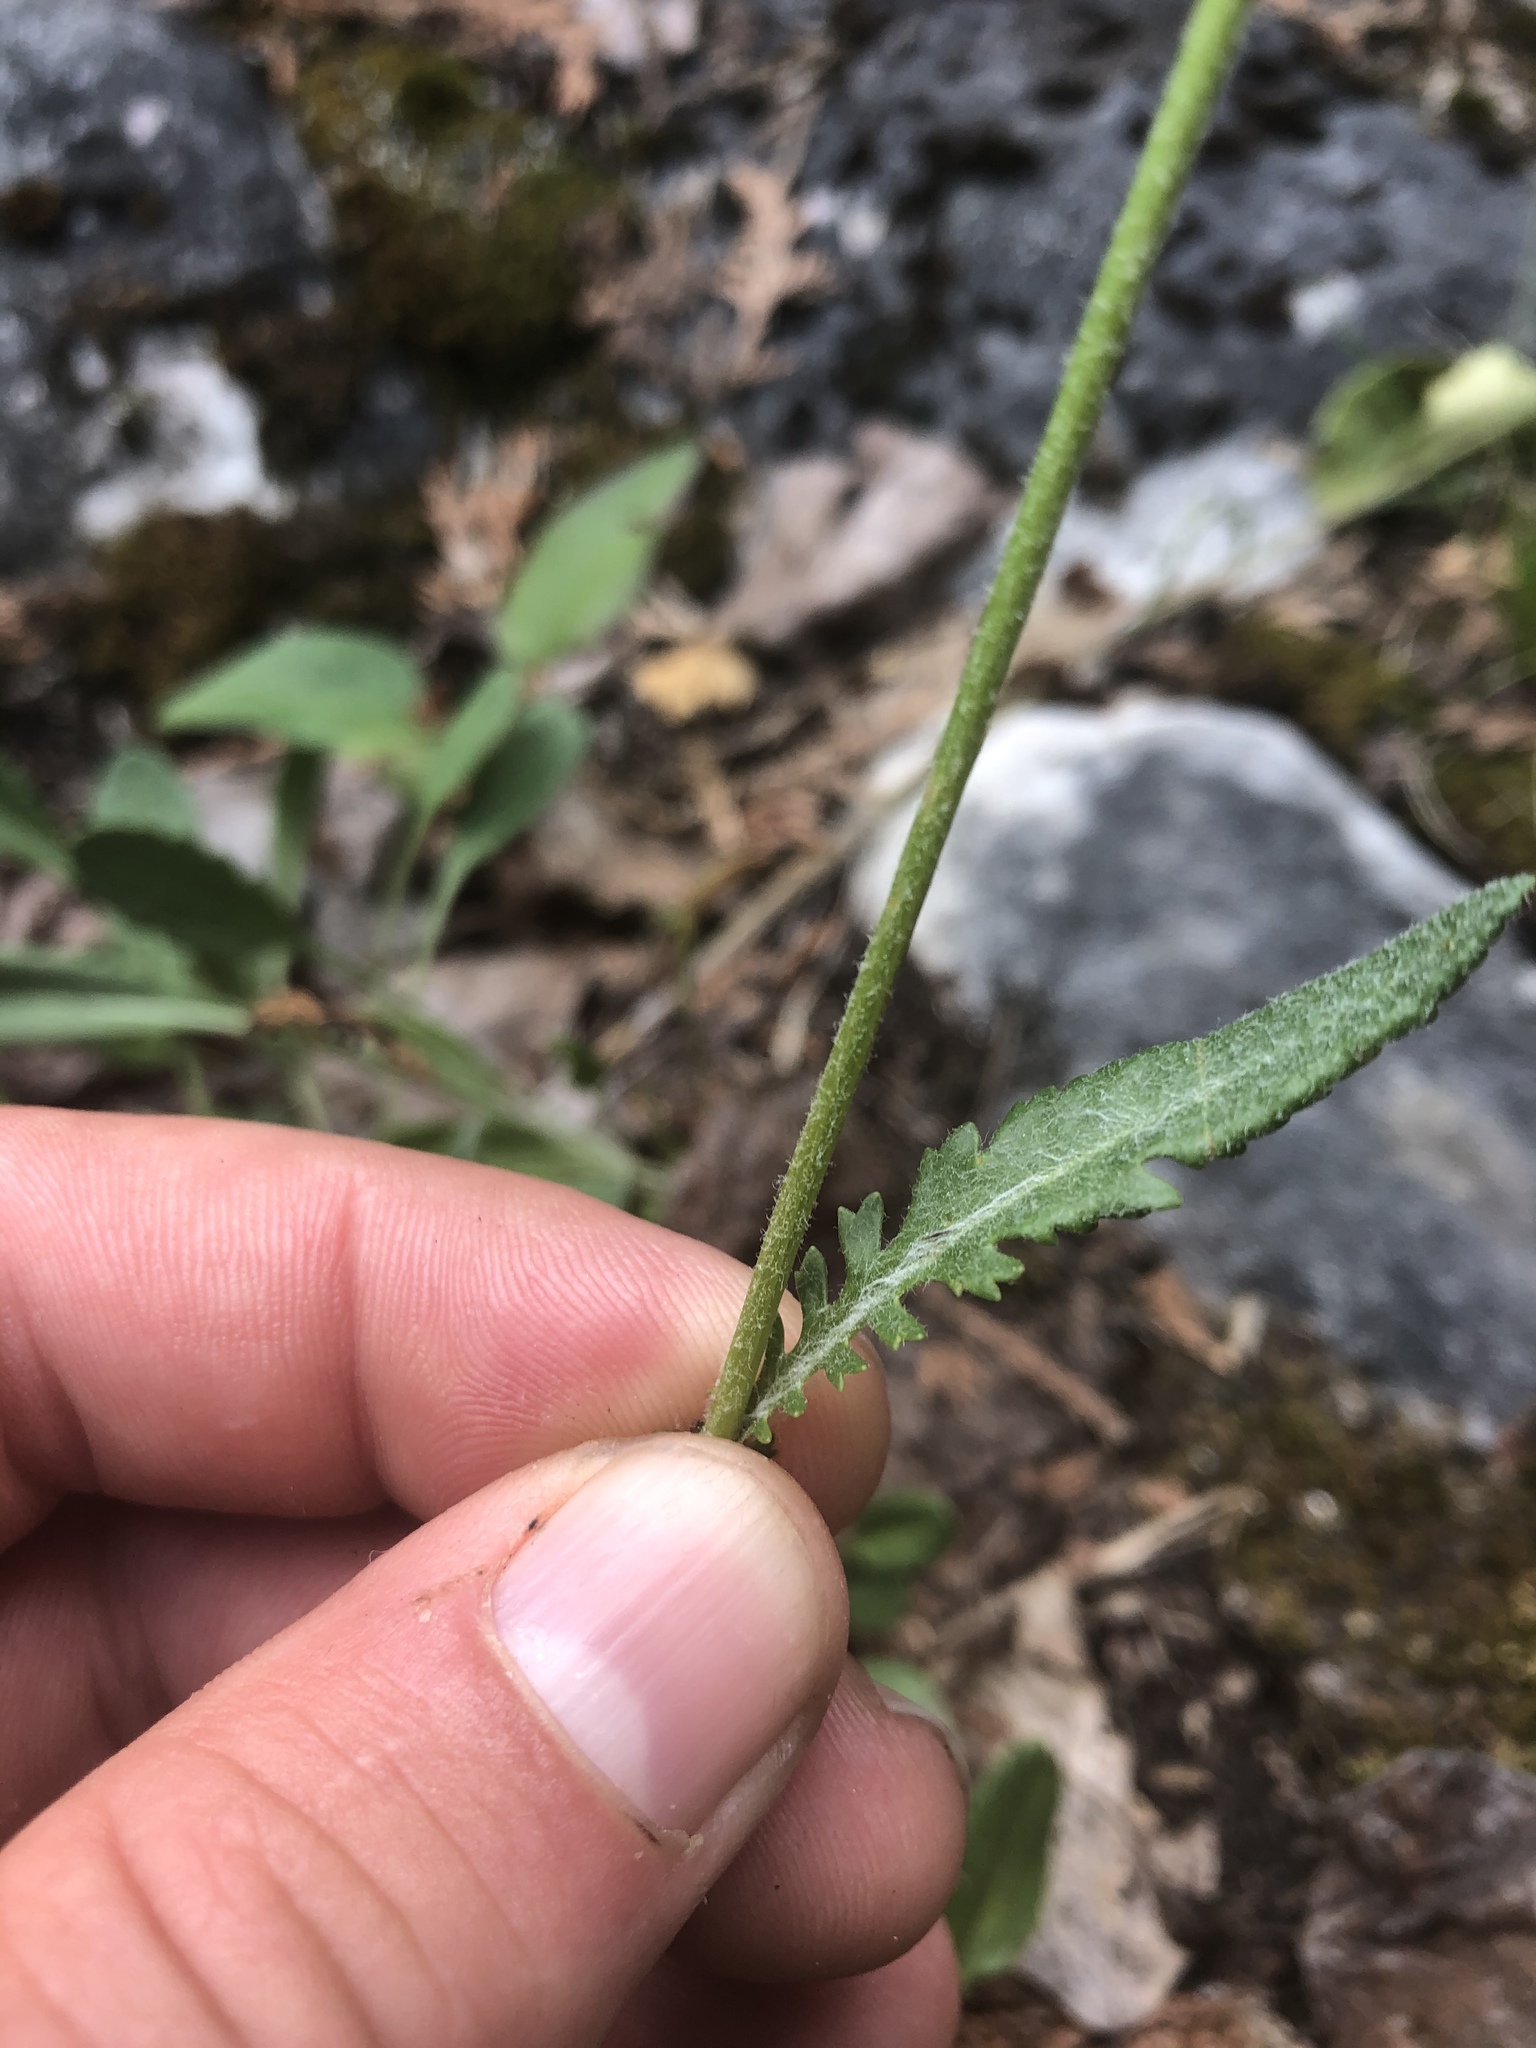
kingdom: Plantae
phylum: Tracheophyta
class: Magnoliopsida
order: Asterales
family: Asteraceae
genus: Packera
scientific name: Packera paupercula
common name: Balsam groundsel
